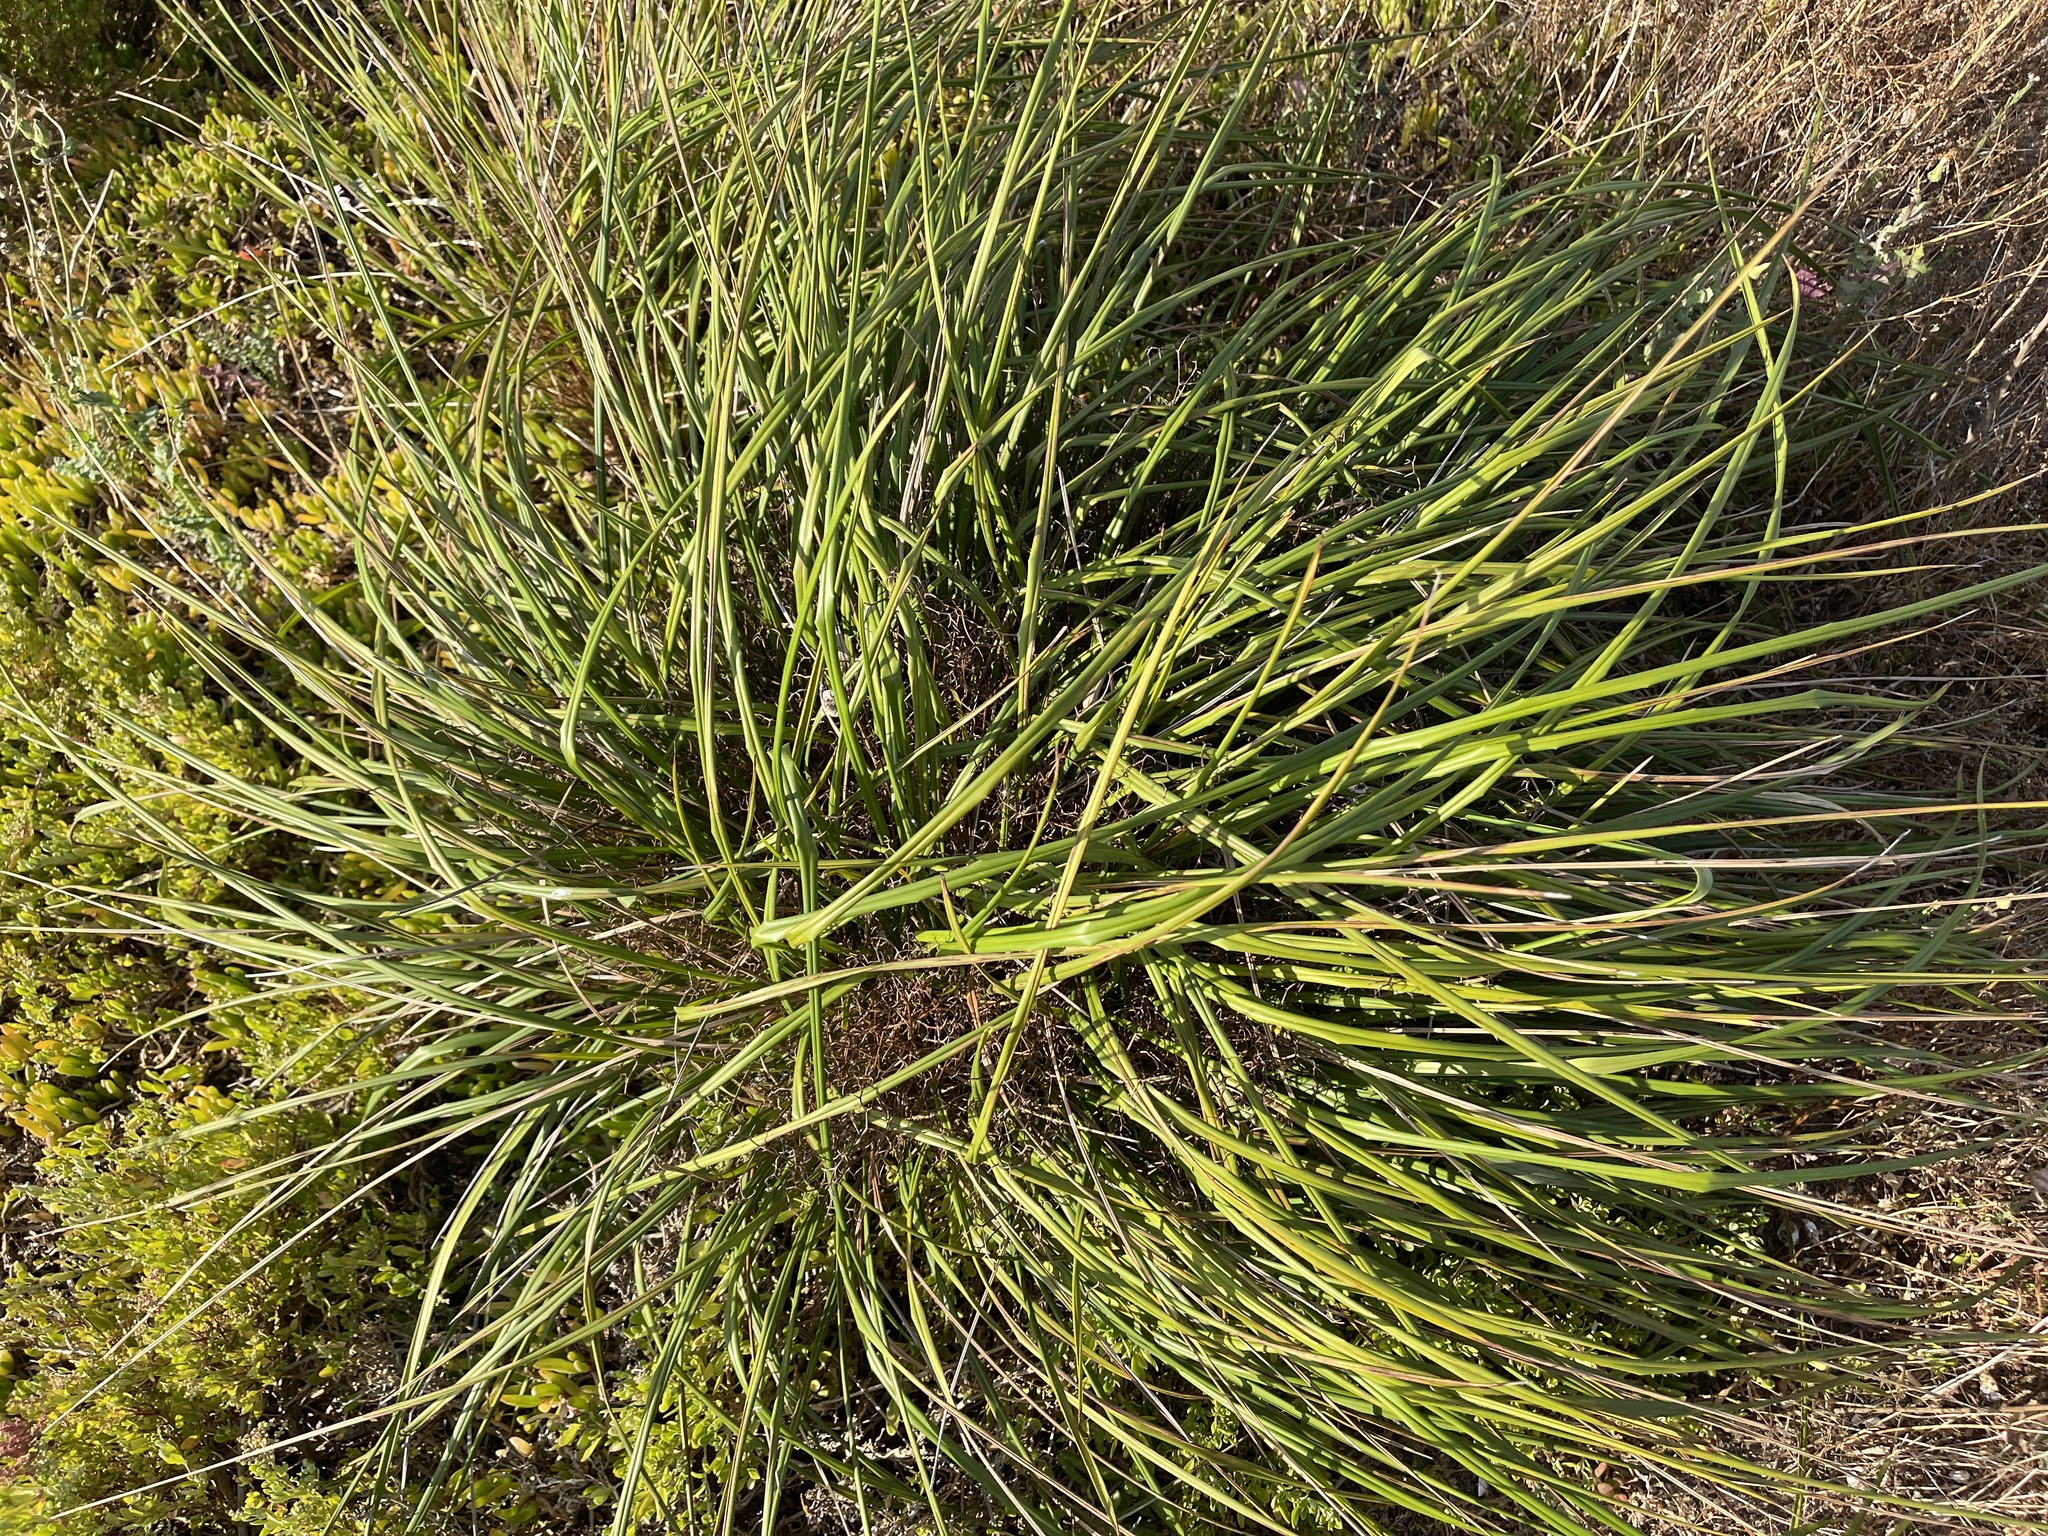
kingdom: Plantae
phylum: Tracheophyta
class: Liliopsida
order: Asparagales
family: Asphodelaceae
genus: Dianella
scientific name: Dianella brevicaulis
